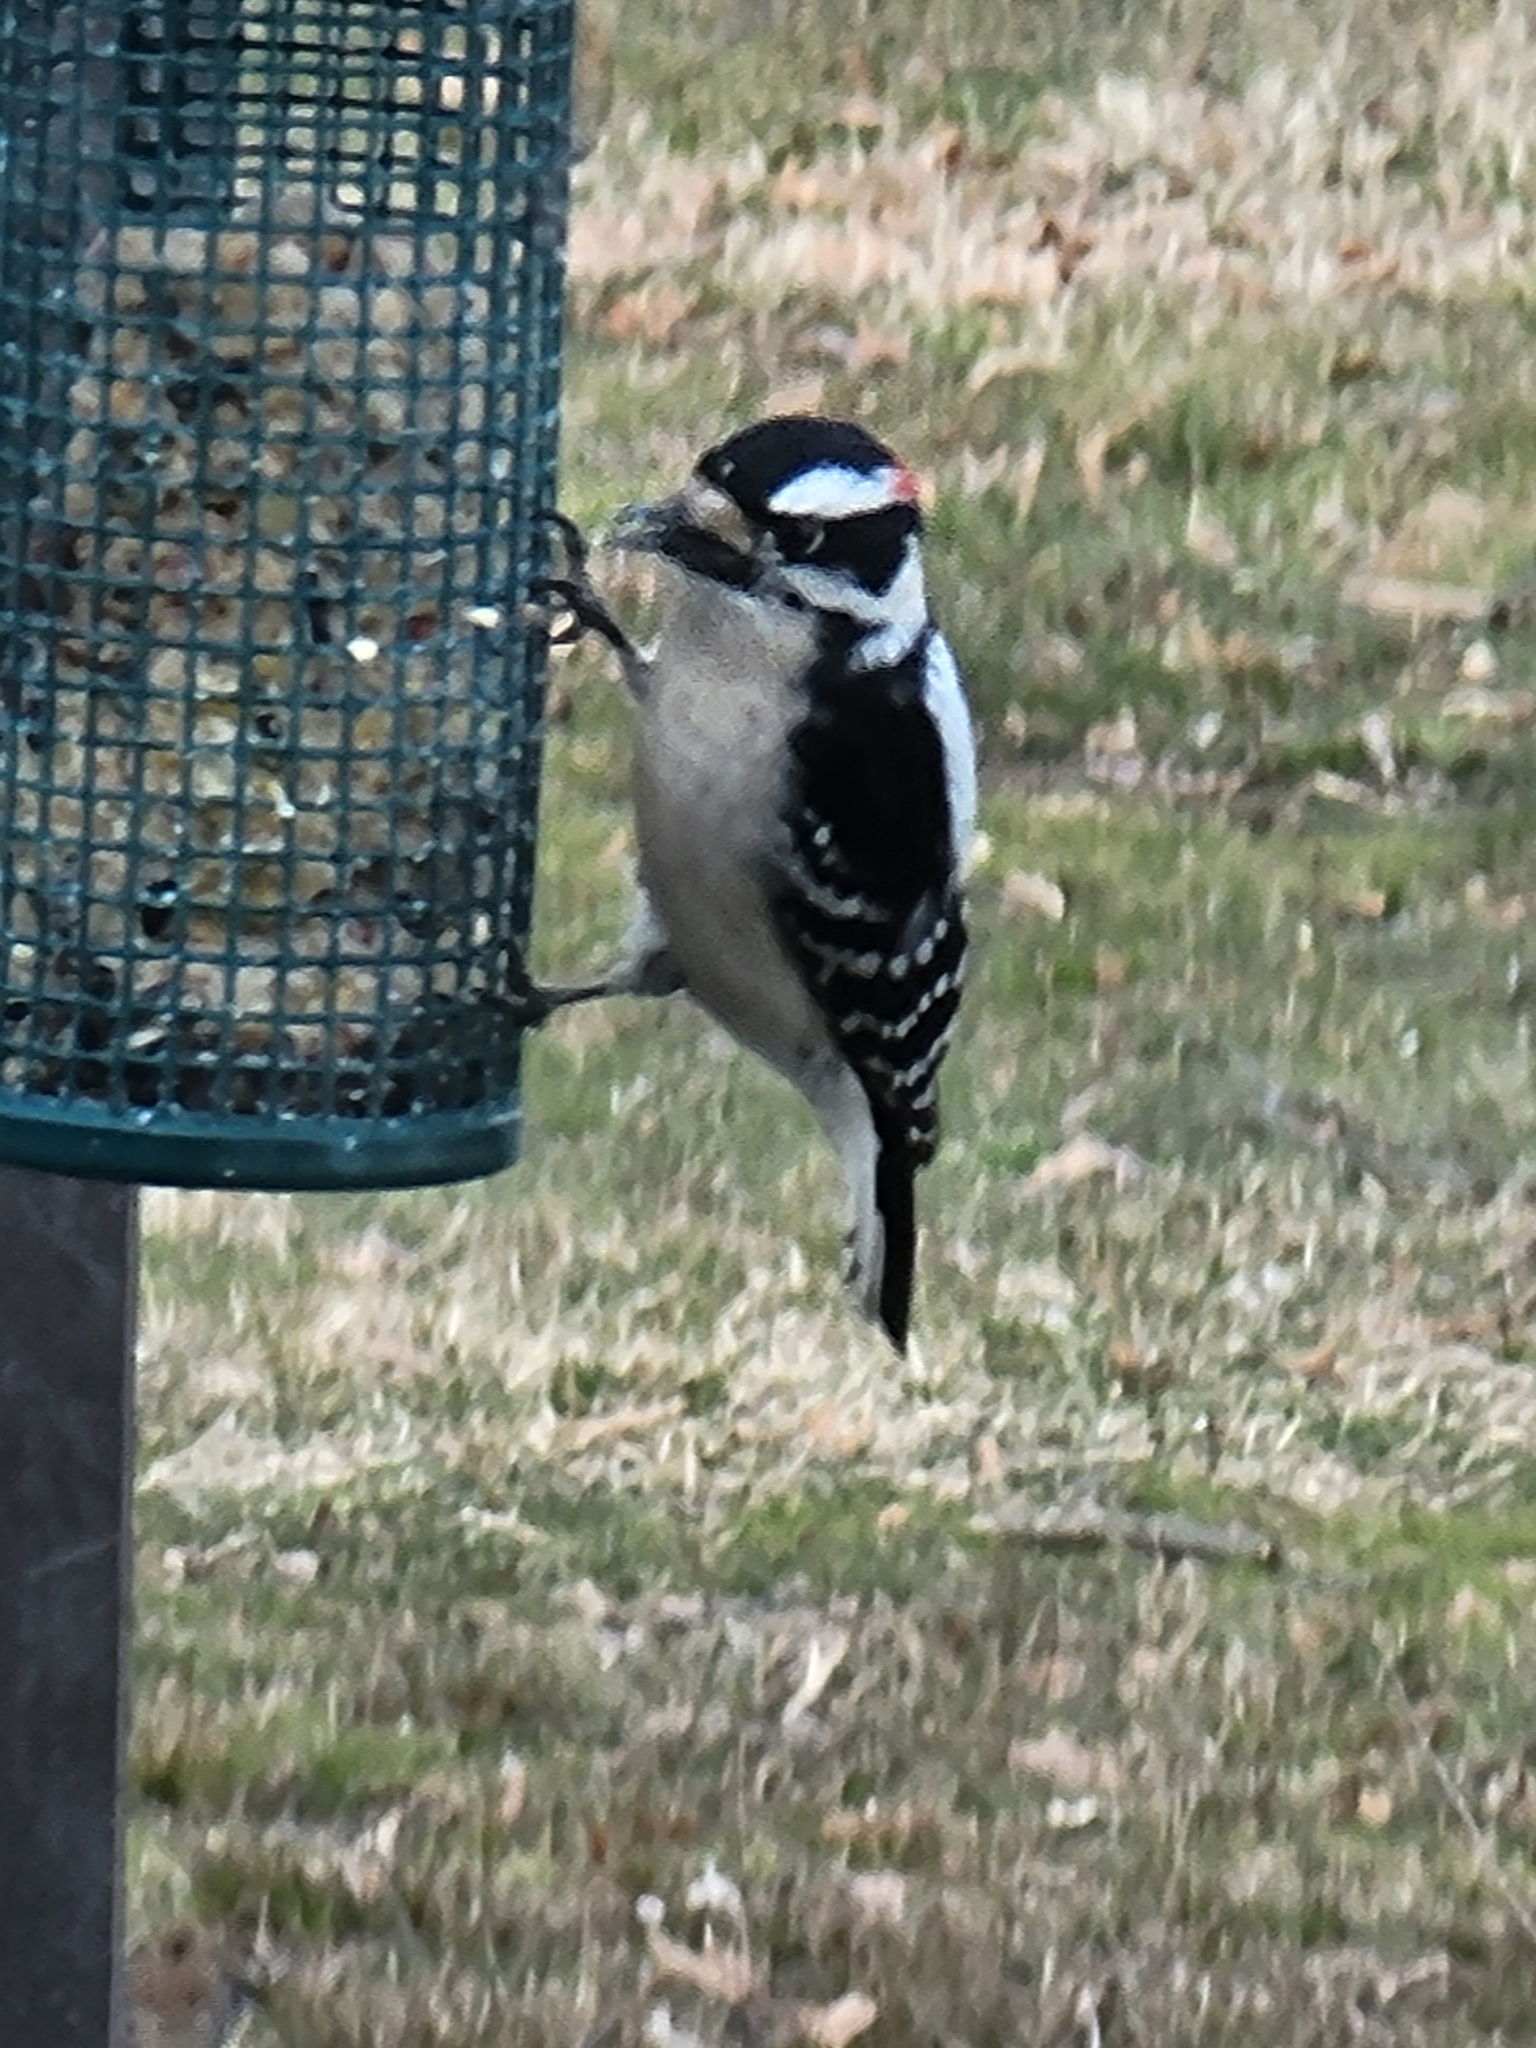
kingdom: Animalia
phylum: Chordata
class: Aves
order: Piciformes
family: Picidae
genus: Dryobates
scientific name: Dryobates pubescens
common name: Downy woodpecker
